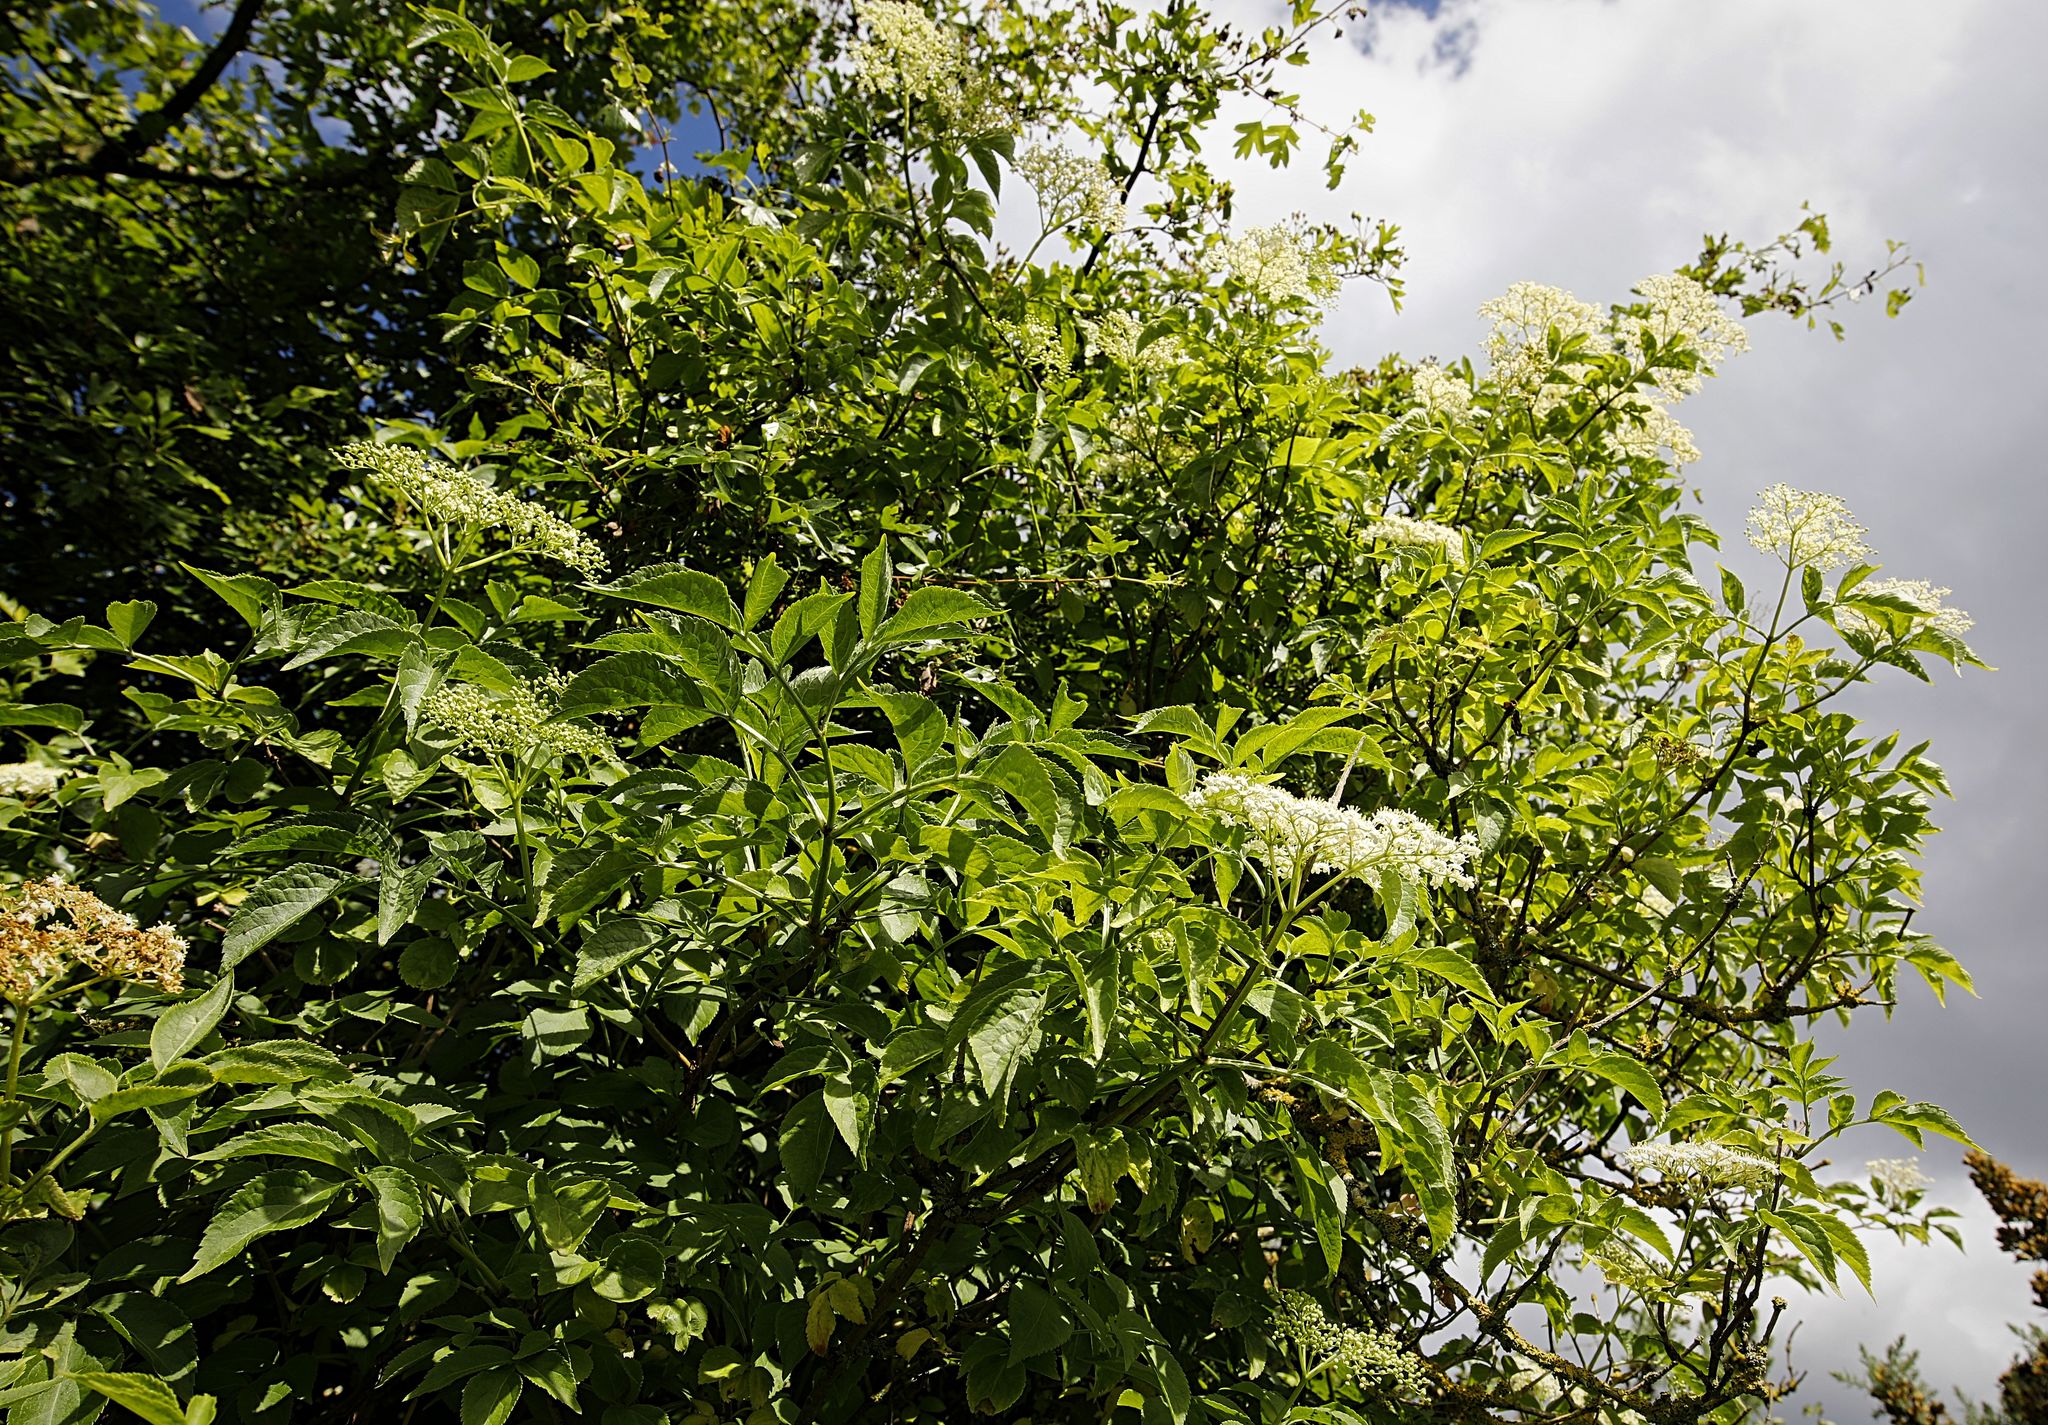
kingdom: Plantae
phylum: Tracheophyta
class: Magnoliopsida
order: Dipsacales
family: Viburnaceae
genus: Sambucus
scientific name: Sambucus nigra
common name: Elder
